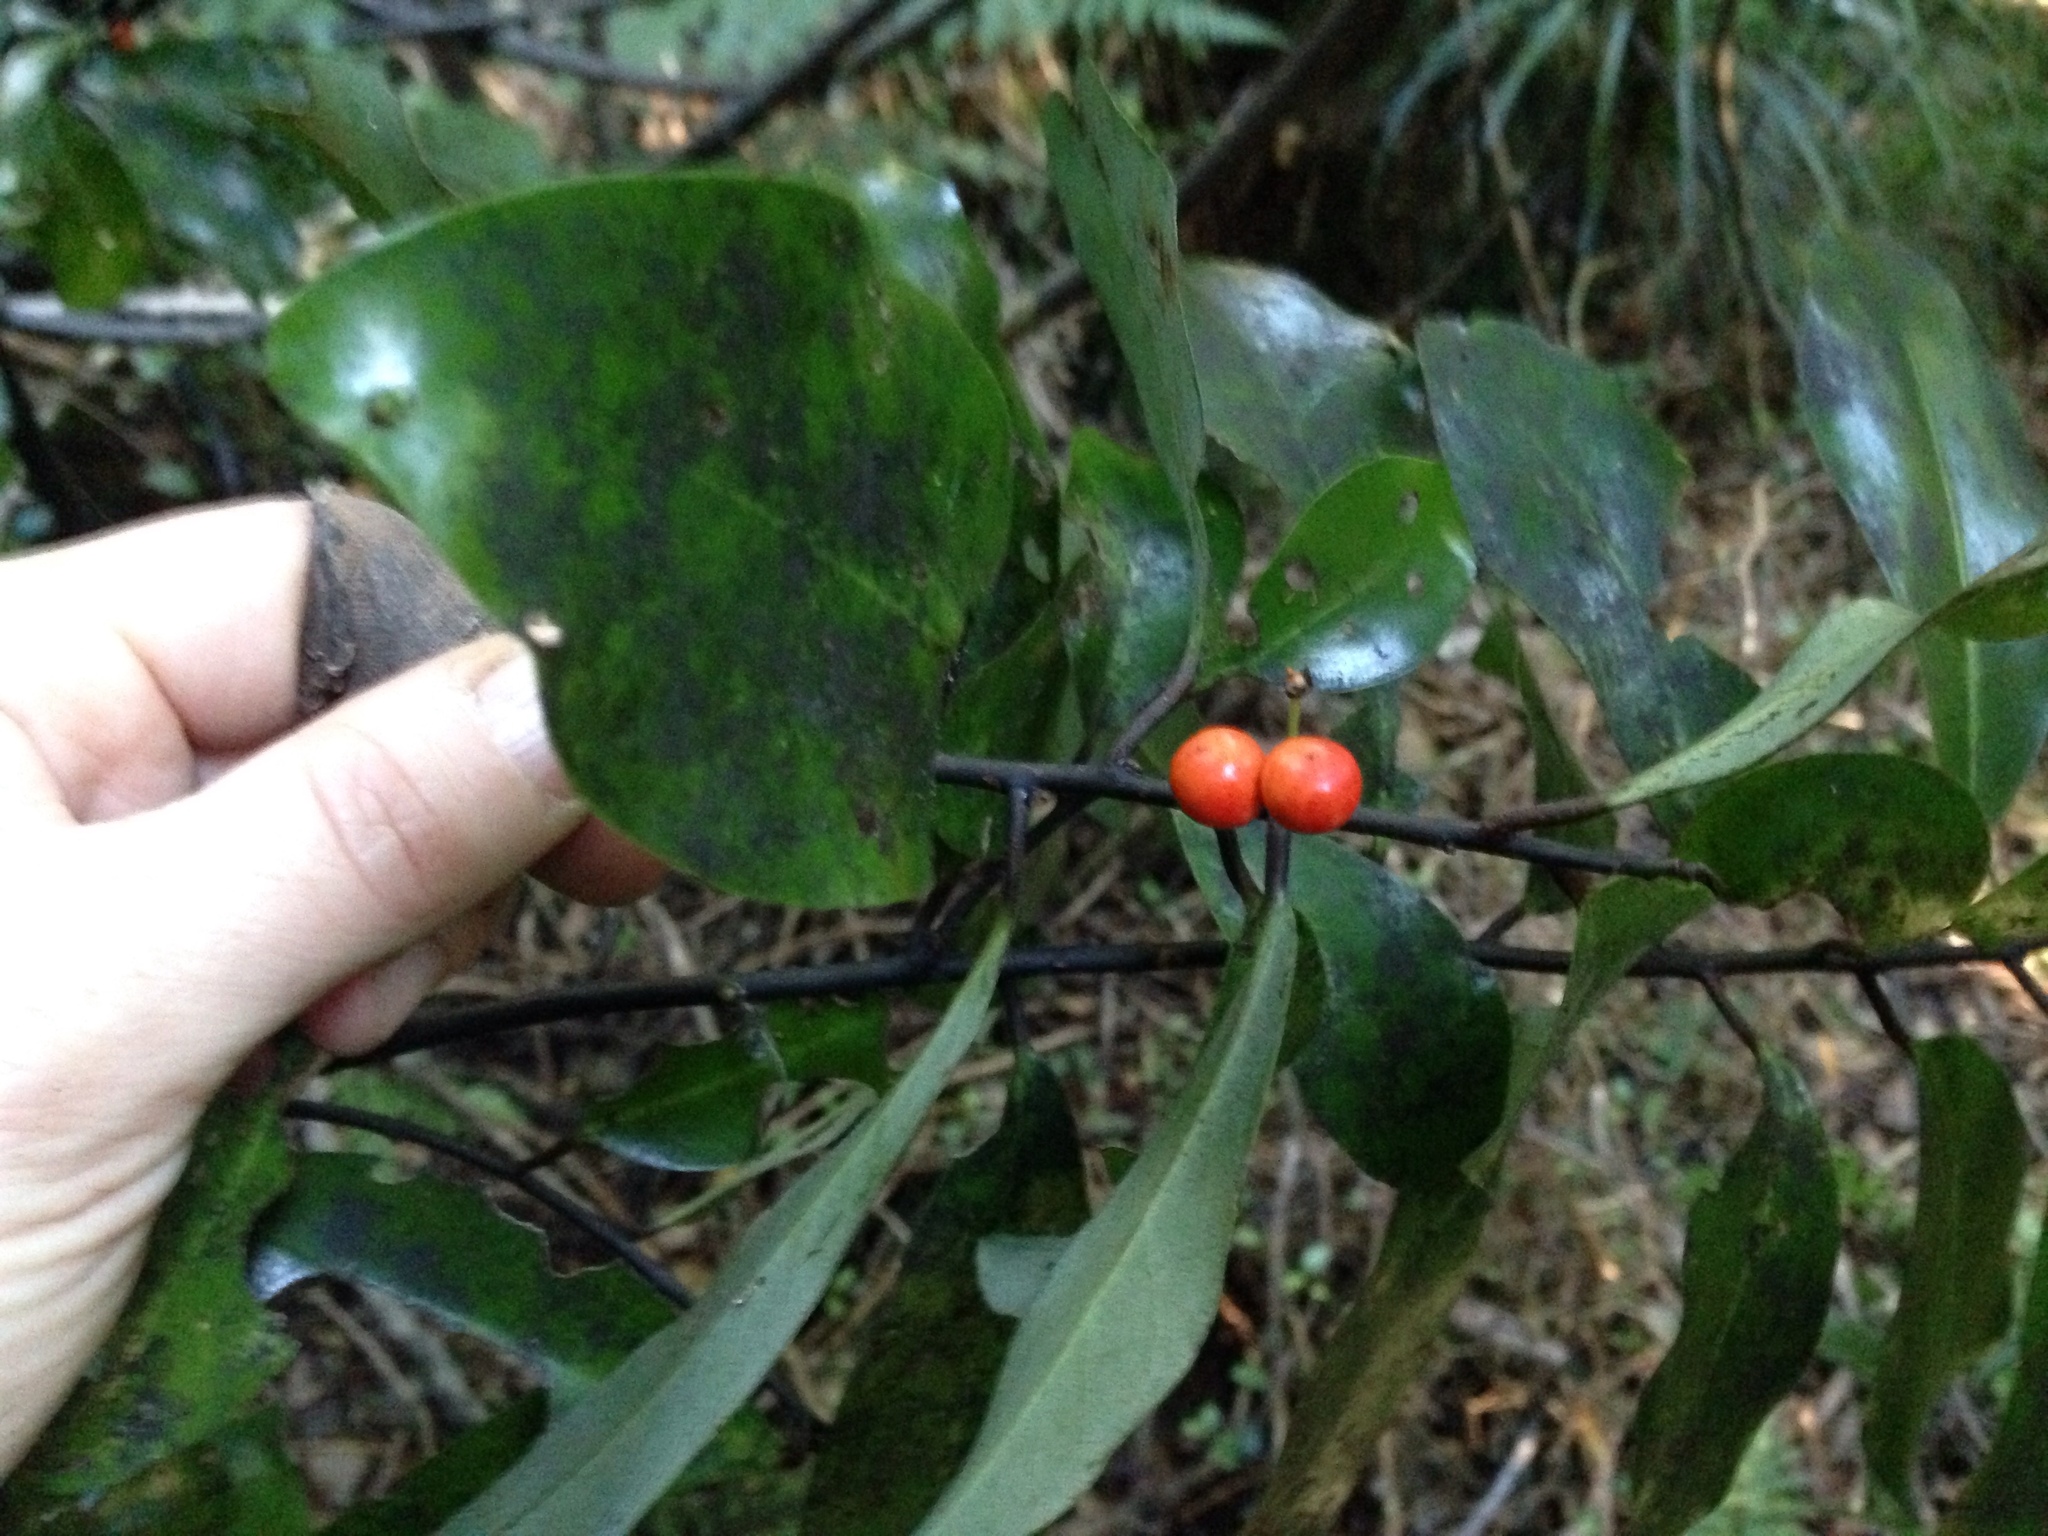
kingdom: Plantae
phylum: Tracheophyta
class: Magnoliopsida
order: Canellales
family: Winteraceae
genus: Pseudowintera
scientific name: Pseudowintera axillaris
